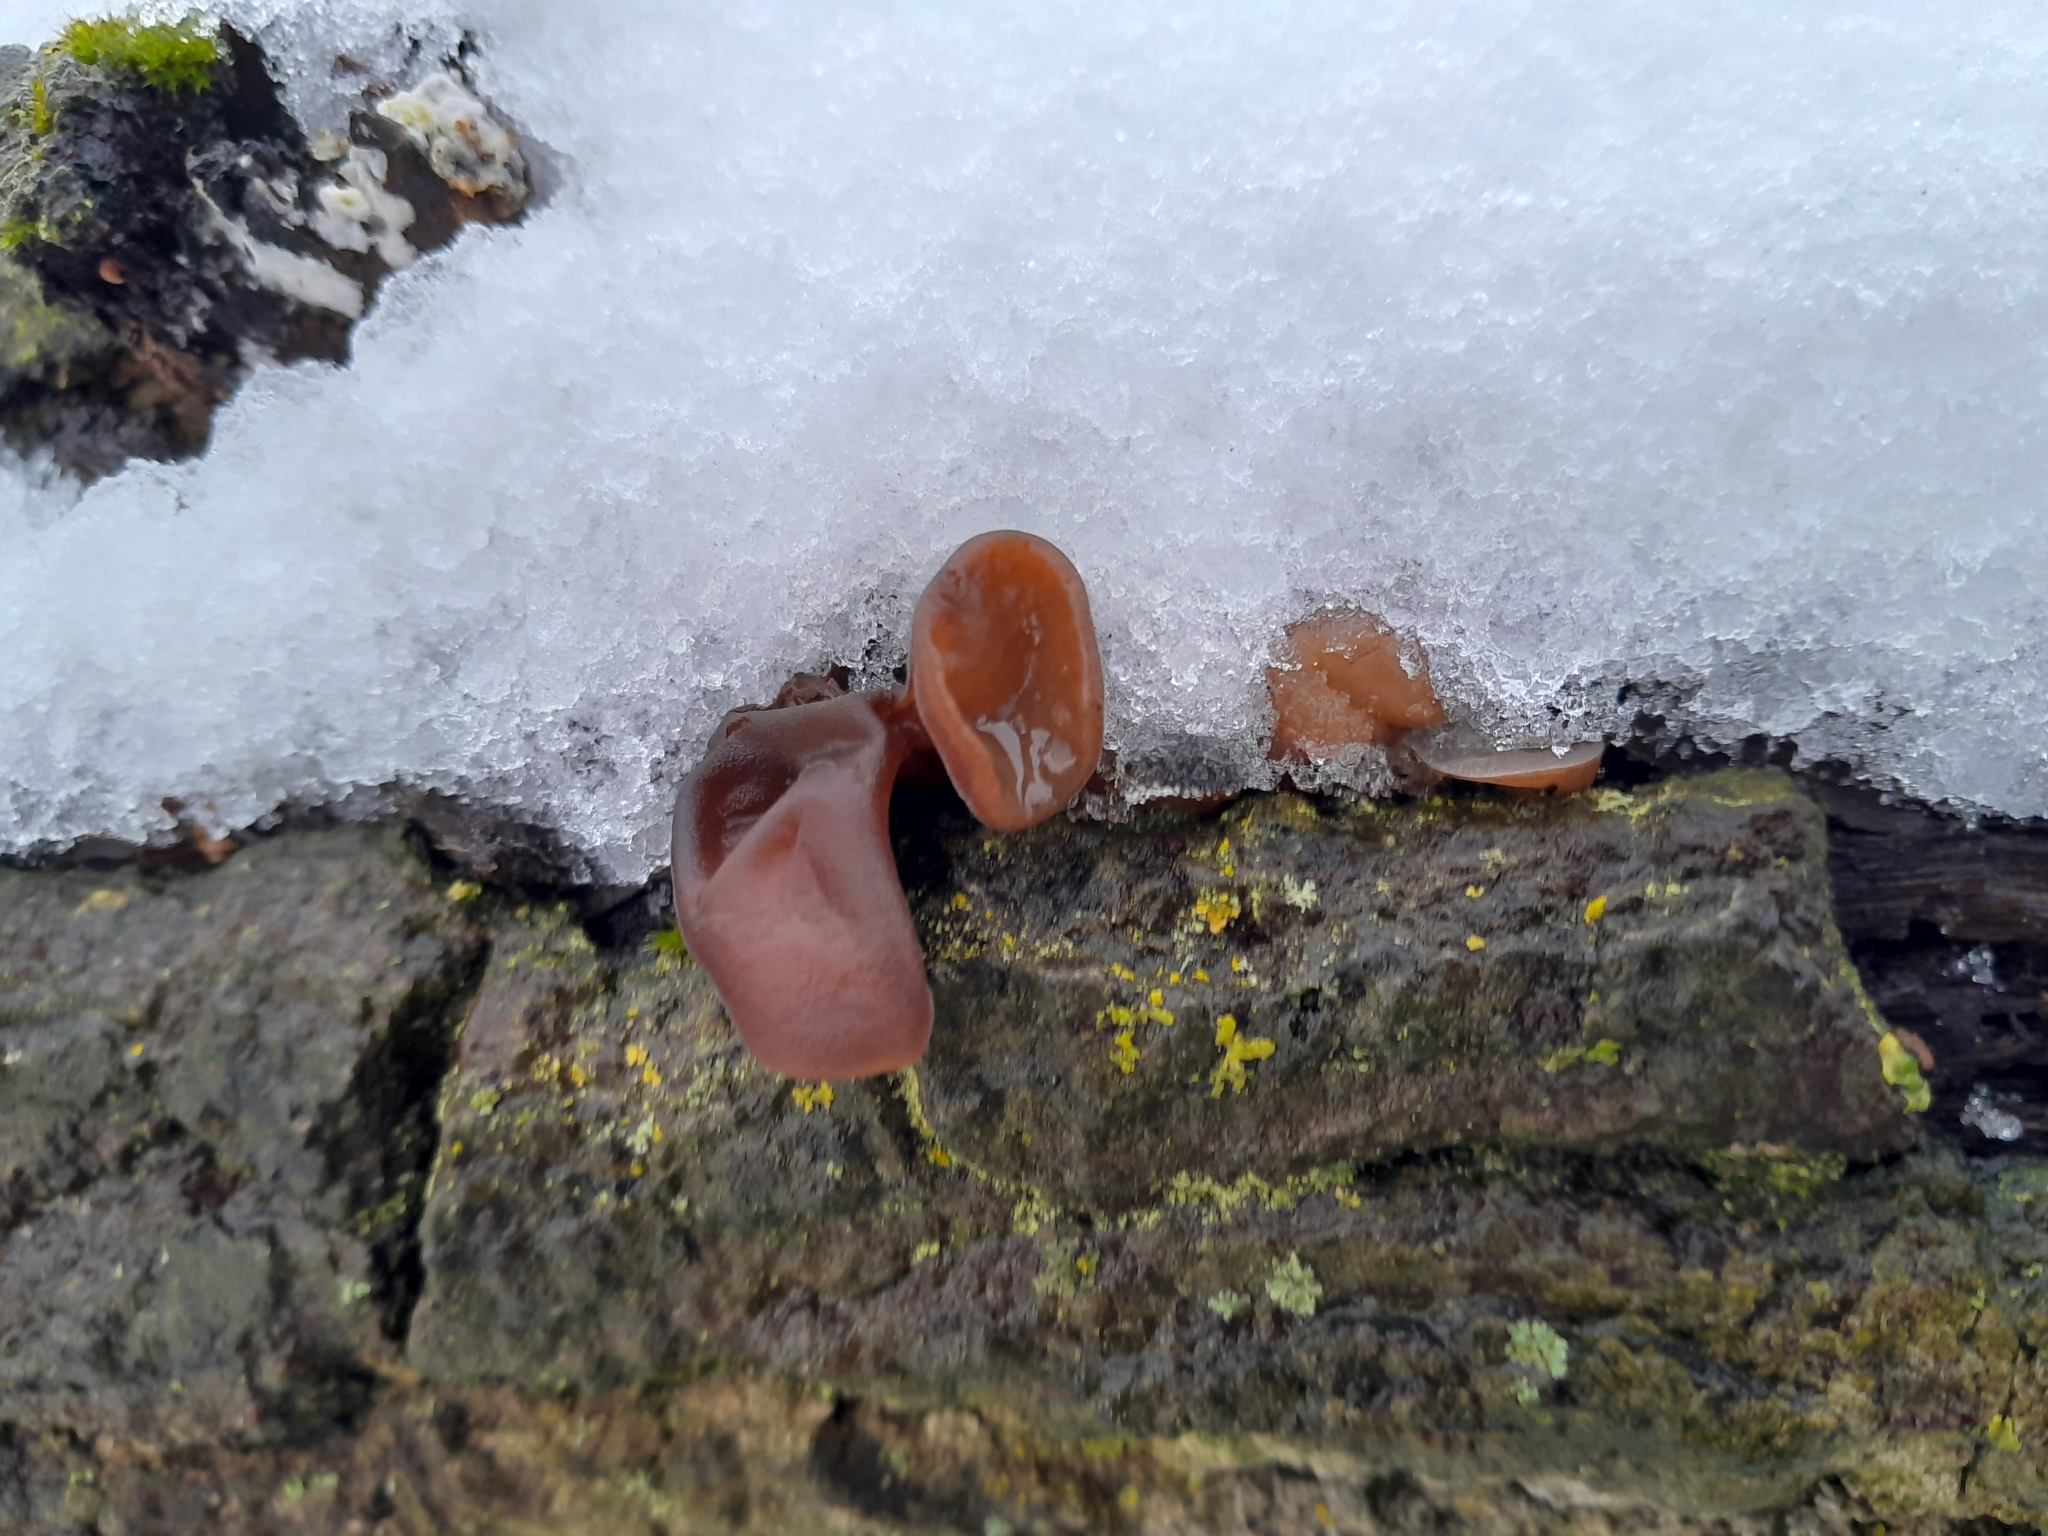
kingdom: Fungi
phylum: Basidiomycota
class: Agaricomycetes
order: Auriculariales
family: Auriculariaceae
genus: Auricularia
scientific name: Auricularia auricula-judae
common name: Jelly ear
